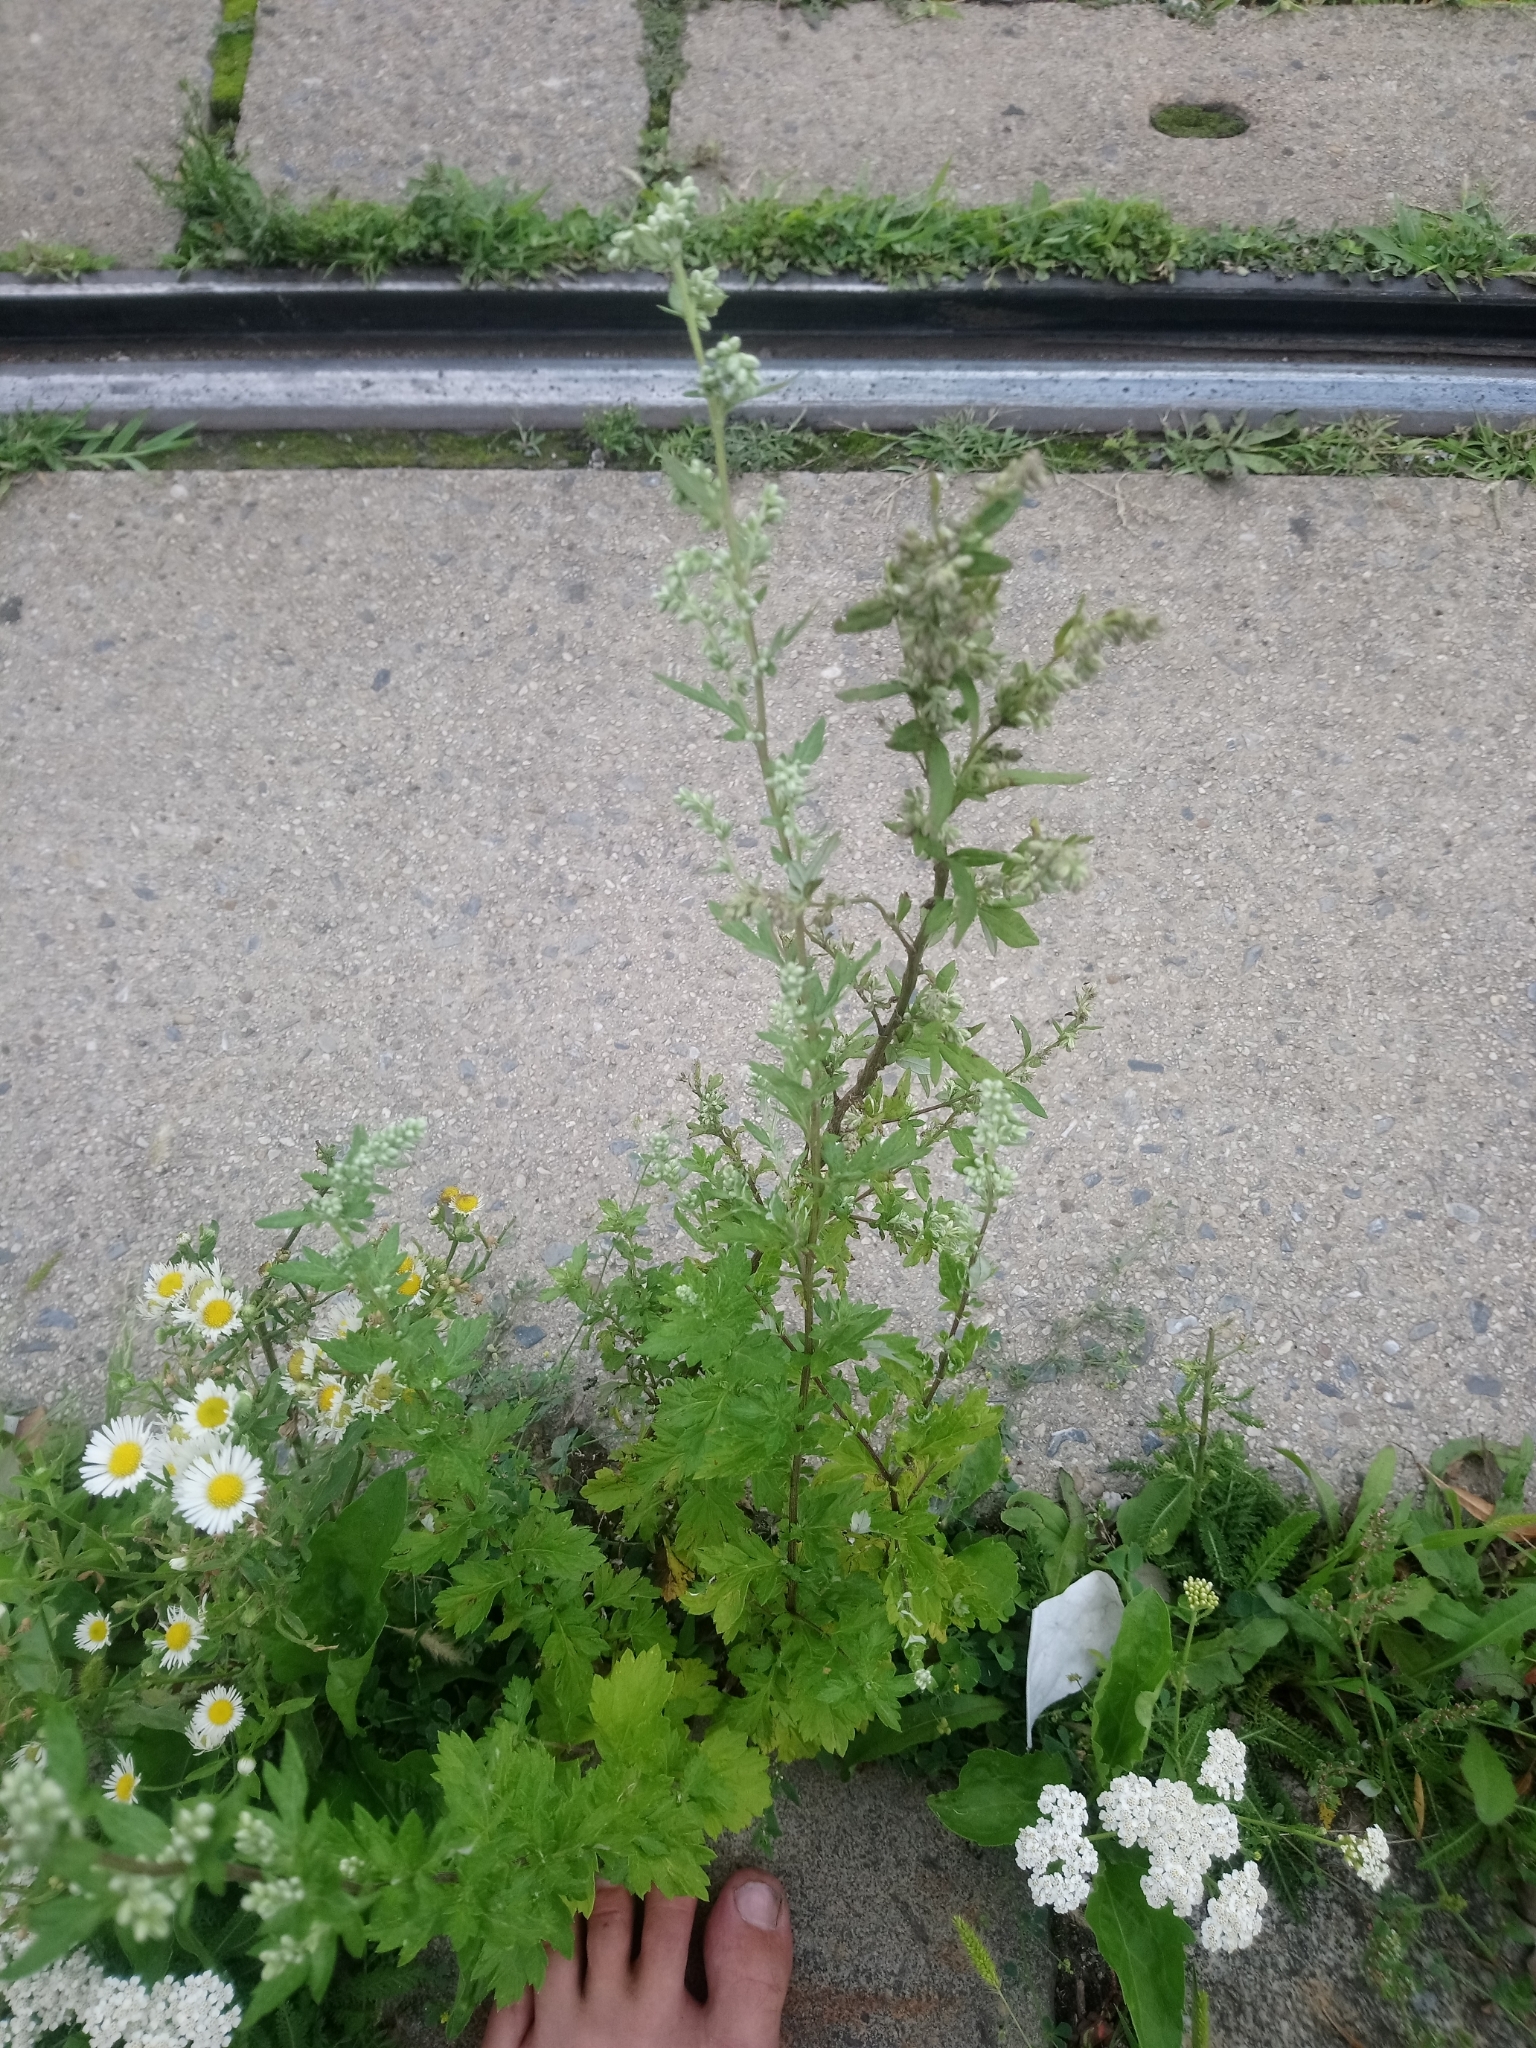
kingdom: Plantae
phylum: Tracheophyta
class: Magnoliopsida
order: Asterales
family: Asteraceae
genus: Artemisia
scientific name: Artemisia vulgaris
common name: Mugwort
